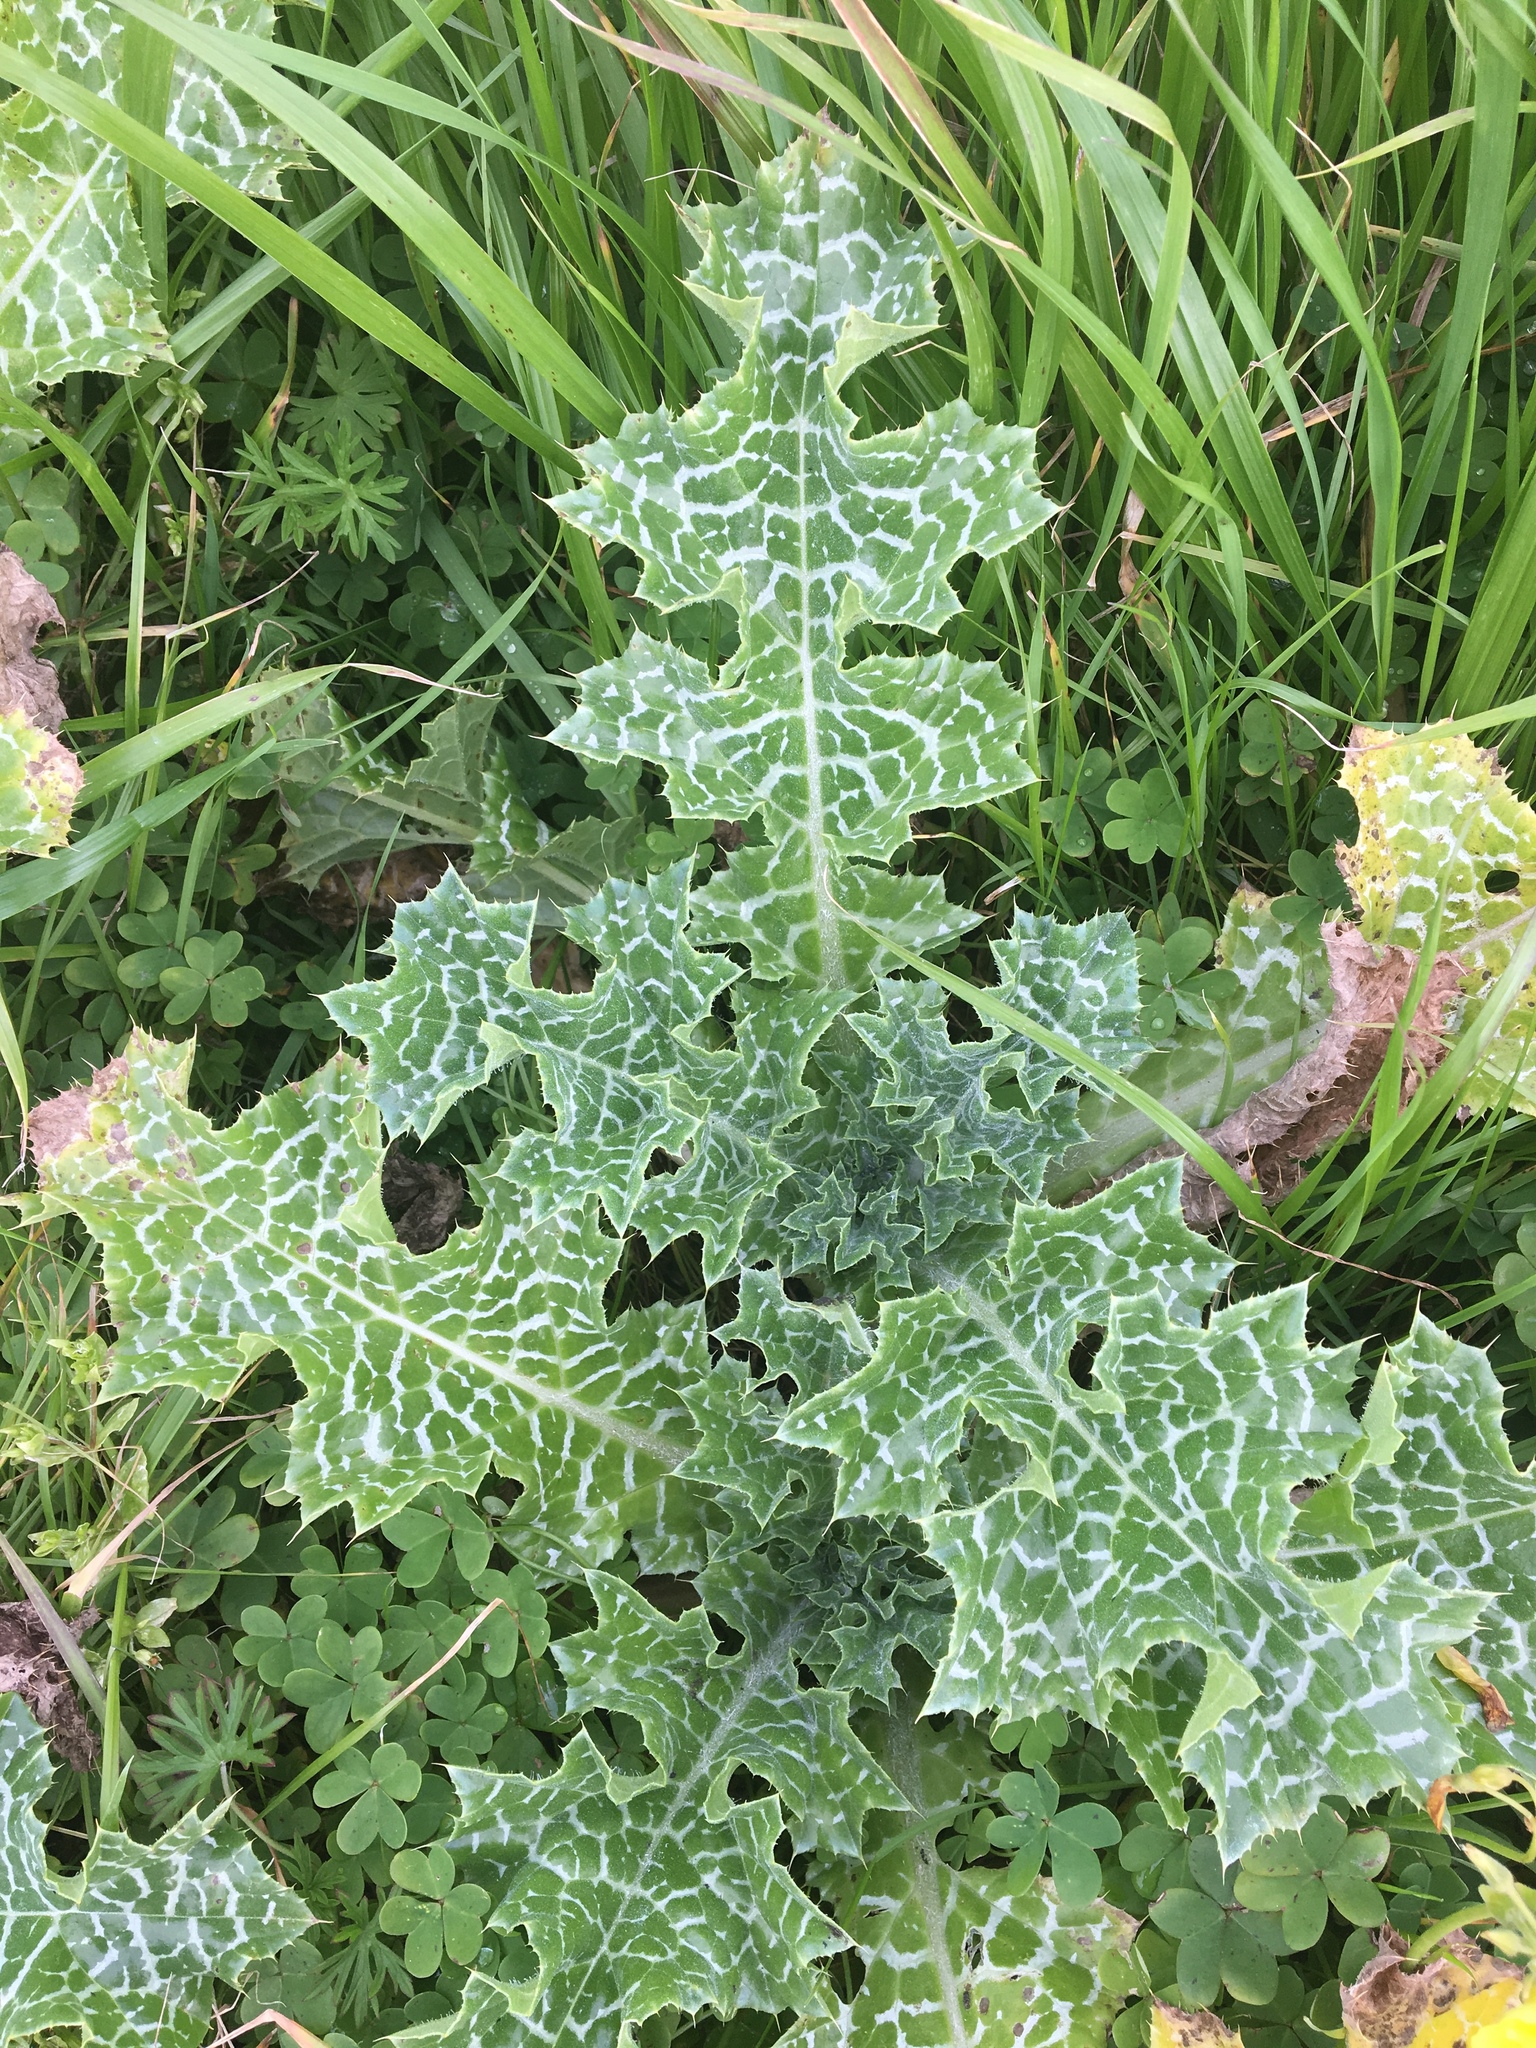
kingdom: Plantae
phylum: Tracheophyta
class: Magnoliopsida
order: Asterales
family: Asteraceae
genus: Silybum
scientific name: Silybum marianum
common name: Milk thistle
